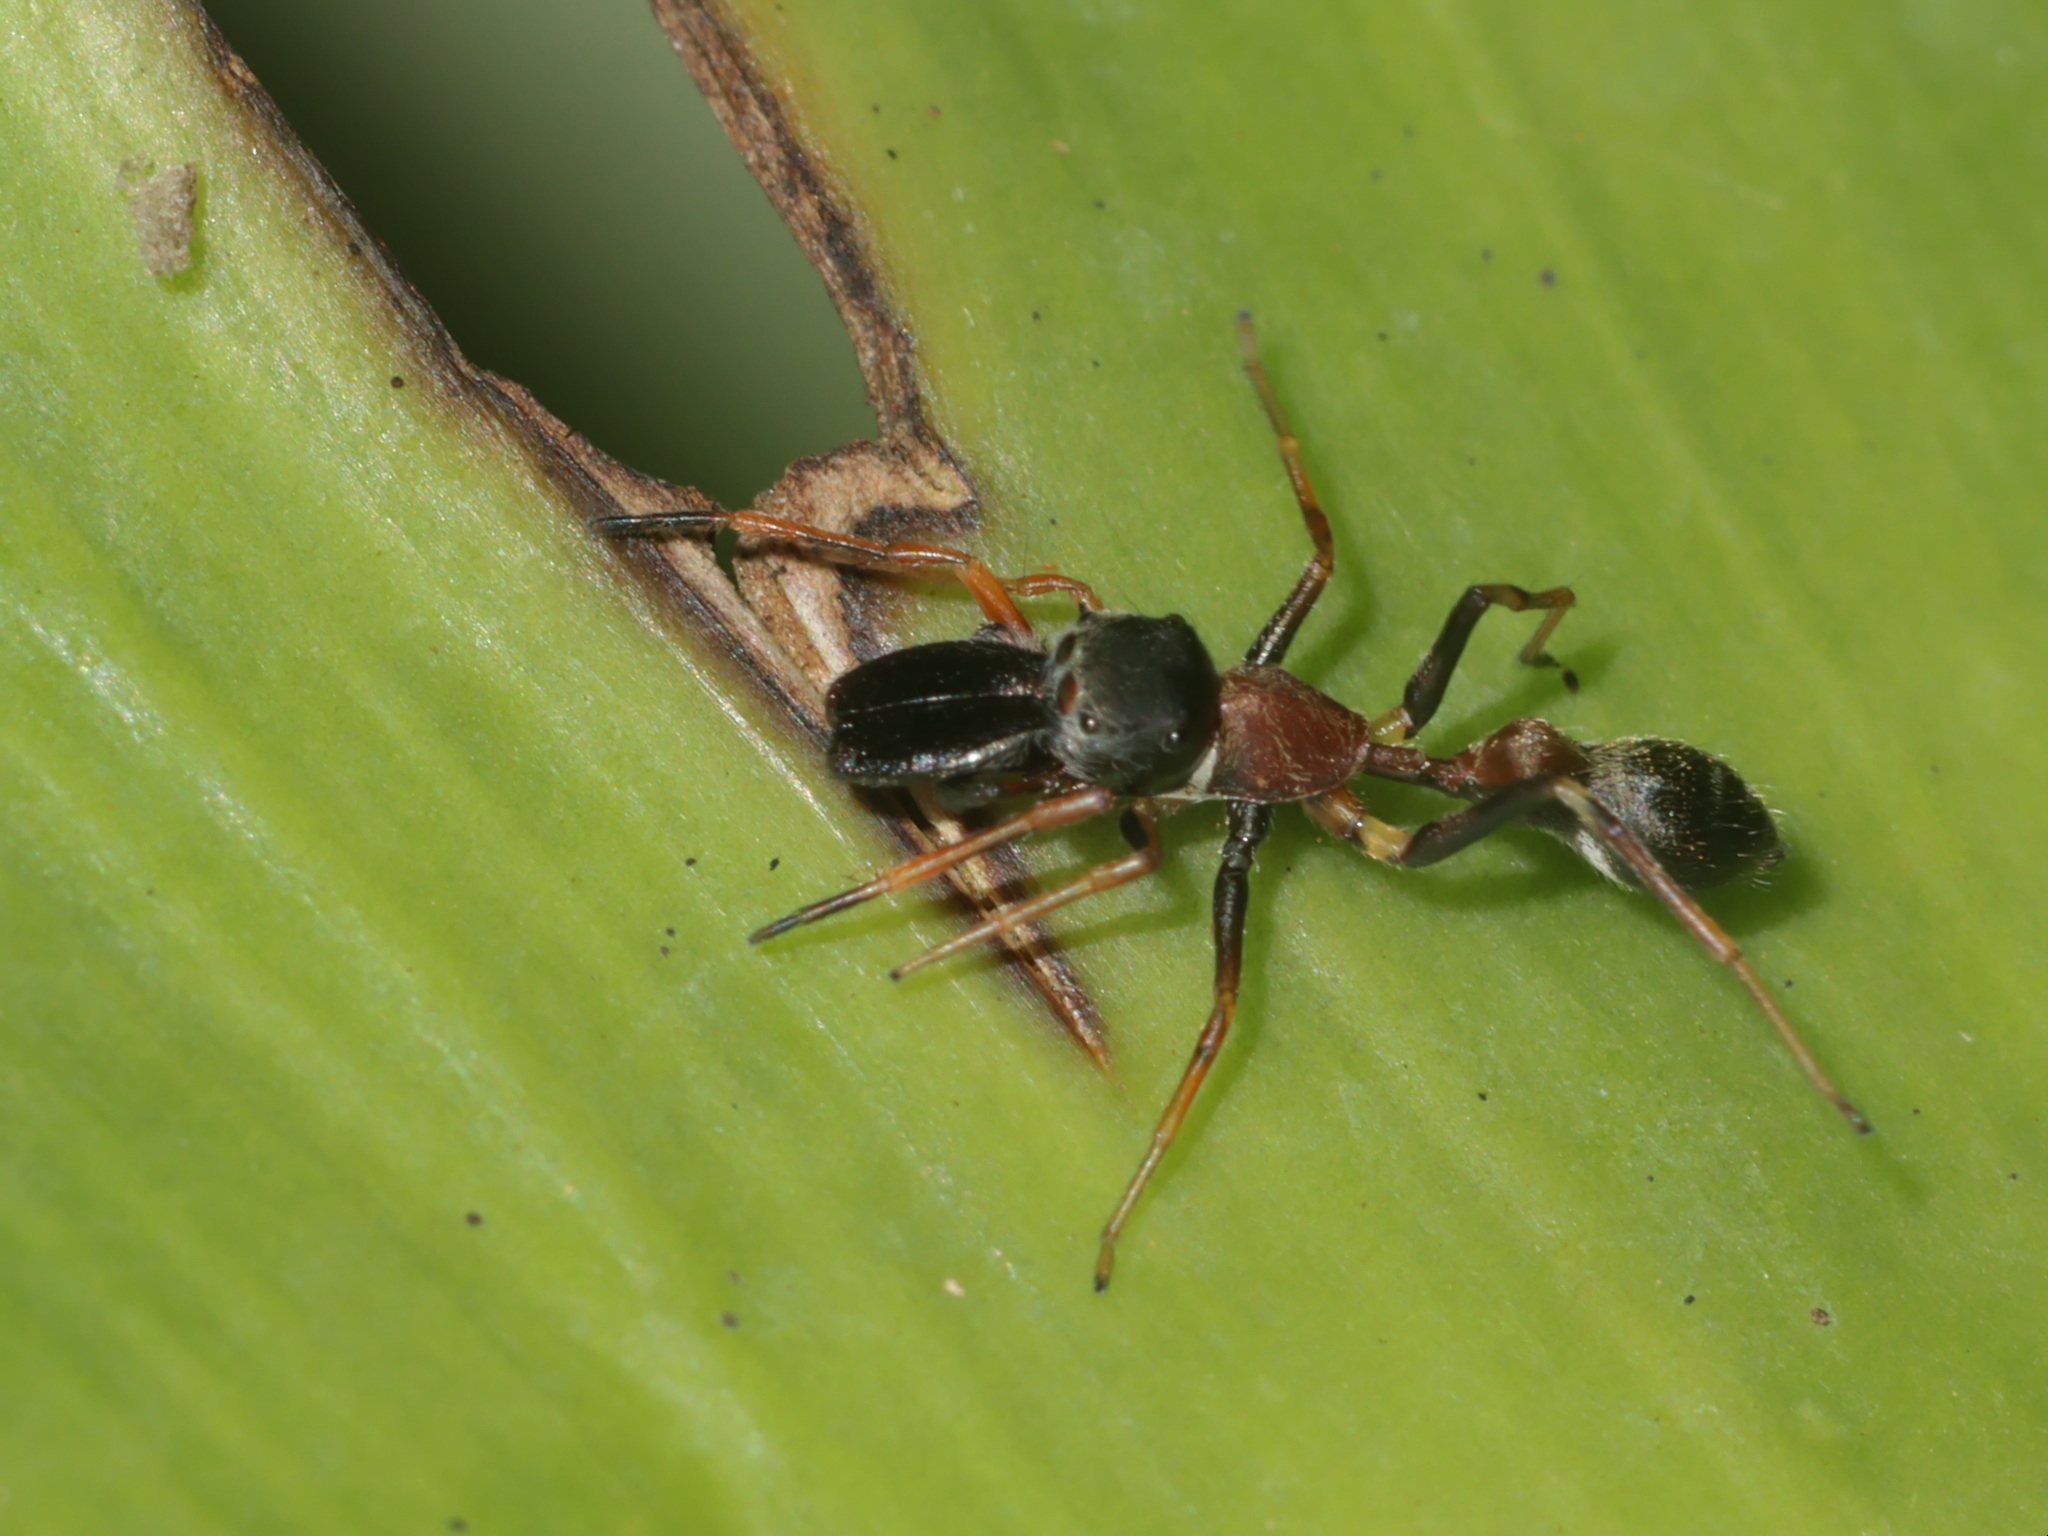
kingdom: Animalia
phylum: Arthropoda
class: Arachnida
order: Araneae
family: Salticidae
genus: Myrmarachne
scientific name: Myrmarachne melanocephala
